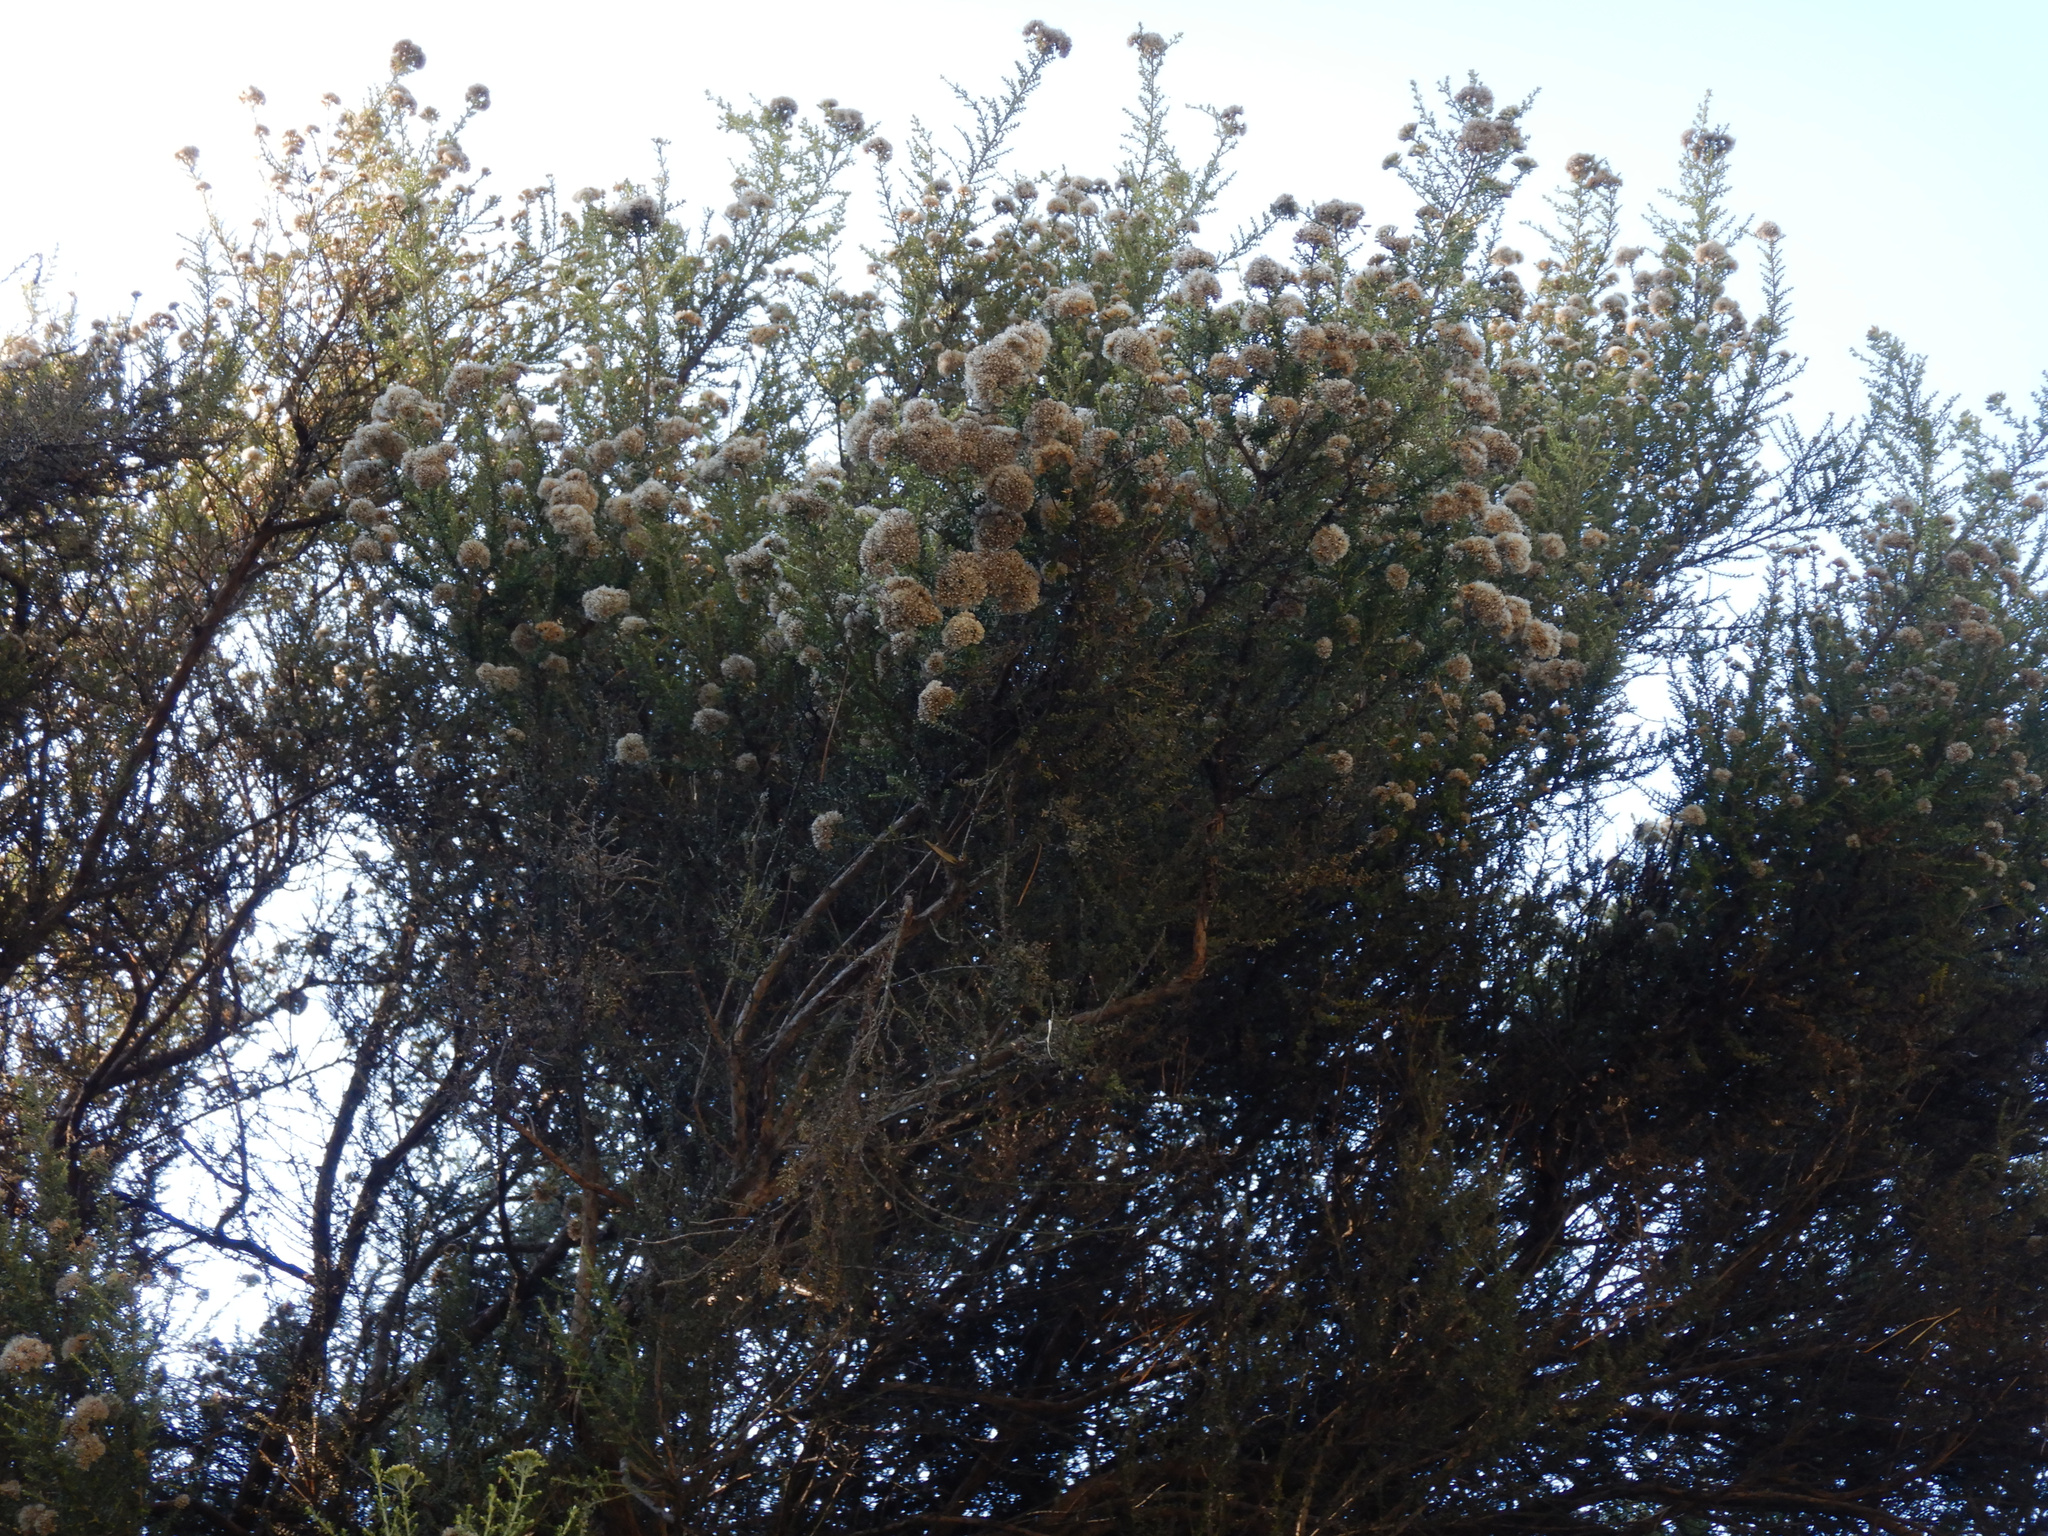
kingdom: Plantae
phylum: Tracheophyta
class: Magnoliopsida
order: Asterales
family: Asteraceae
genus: Ozothamnus
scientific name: Ozothamnus leptophyllus
